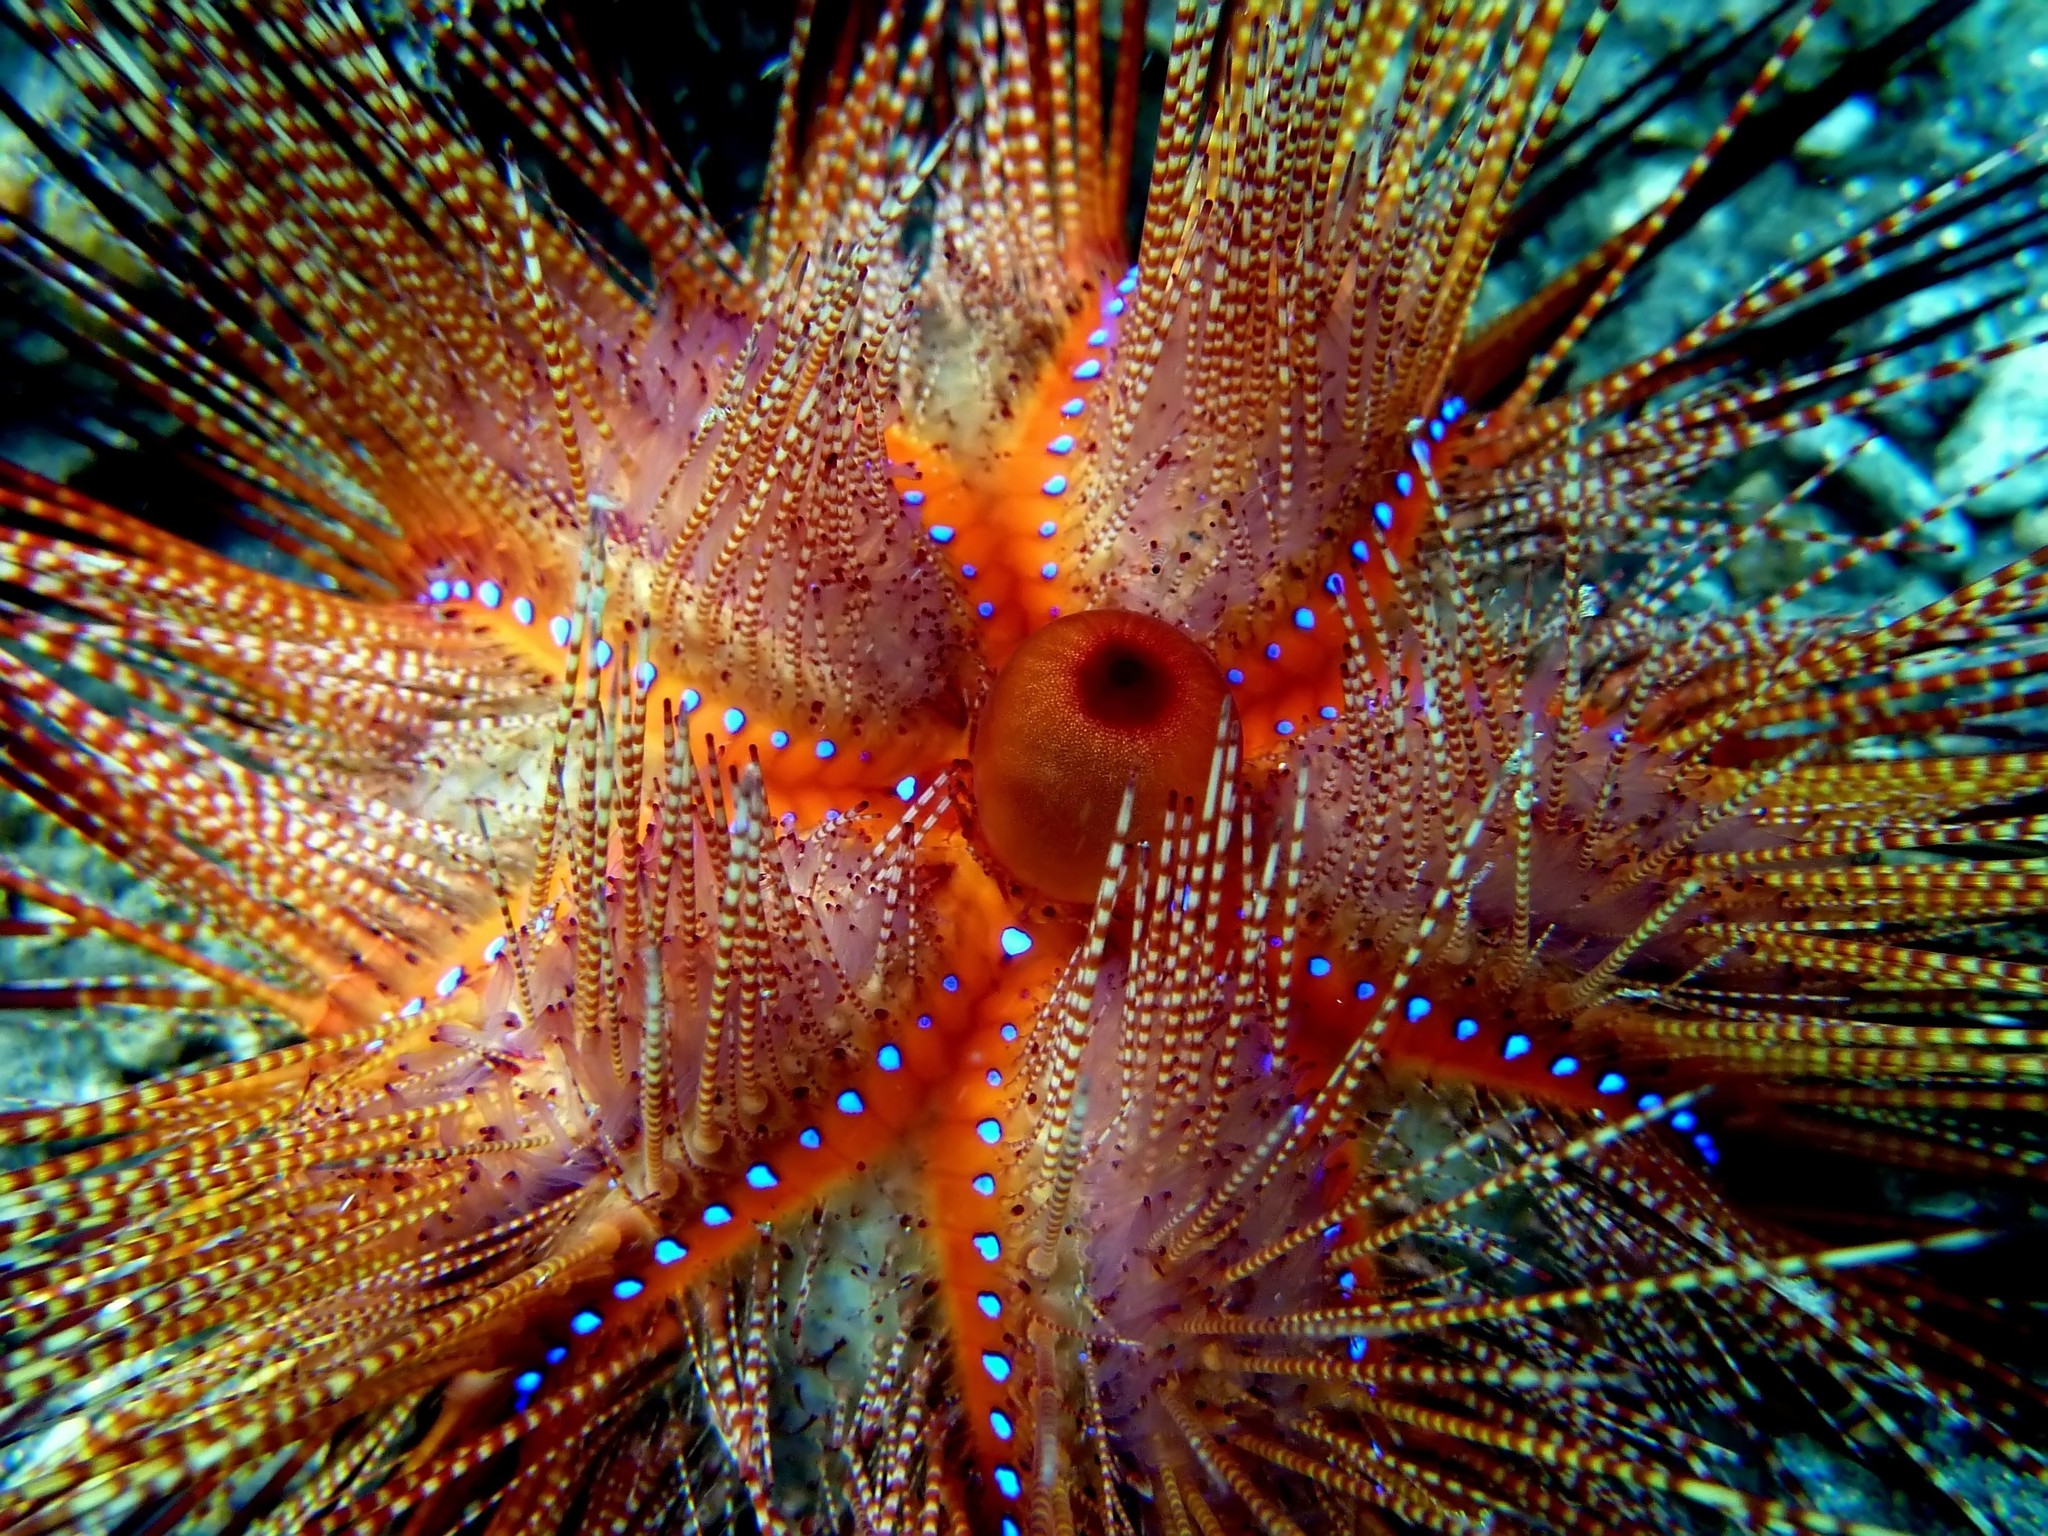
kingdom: Animalia
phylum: Echinodermata
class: Echinoidea
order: Diadematoida
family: Diadematidae
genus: Astropyga
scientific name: Astropyga radiata
